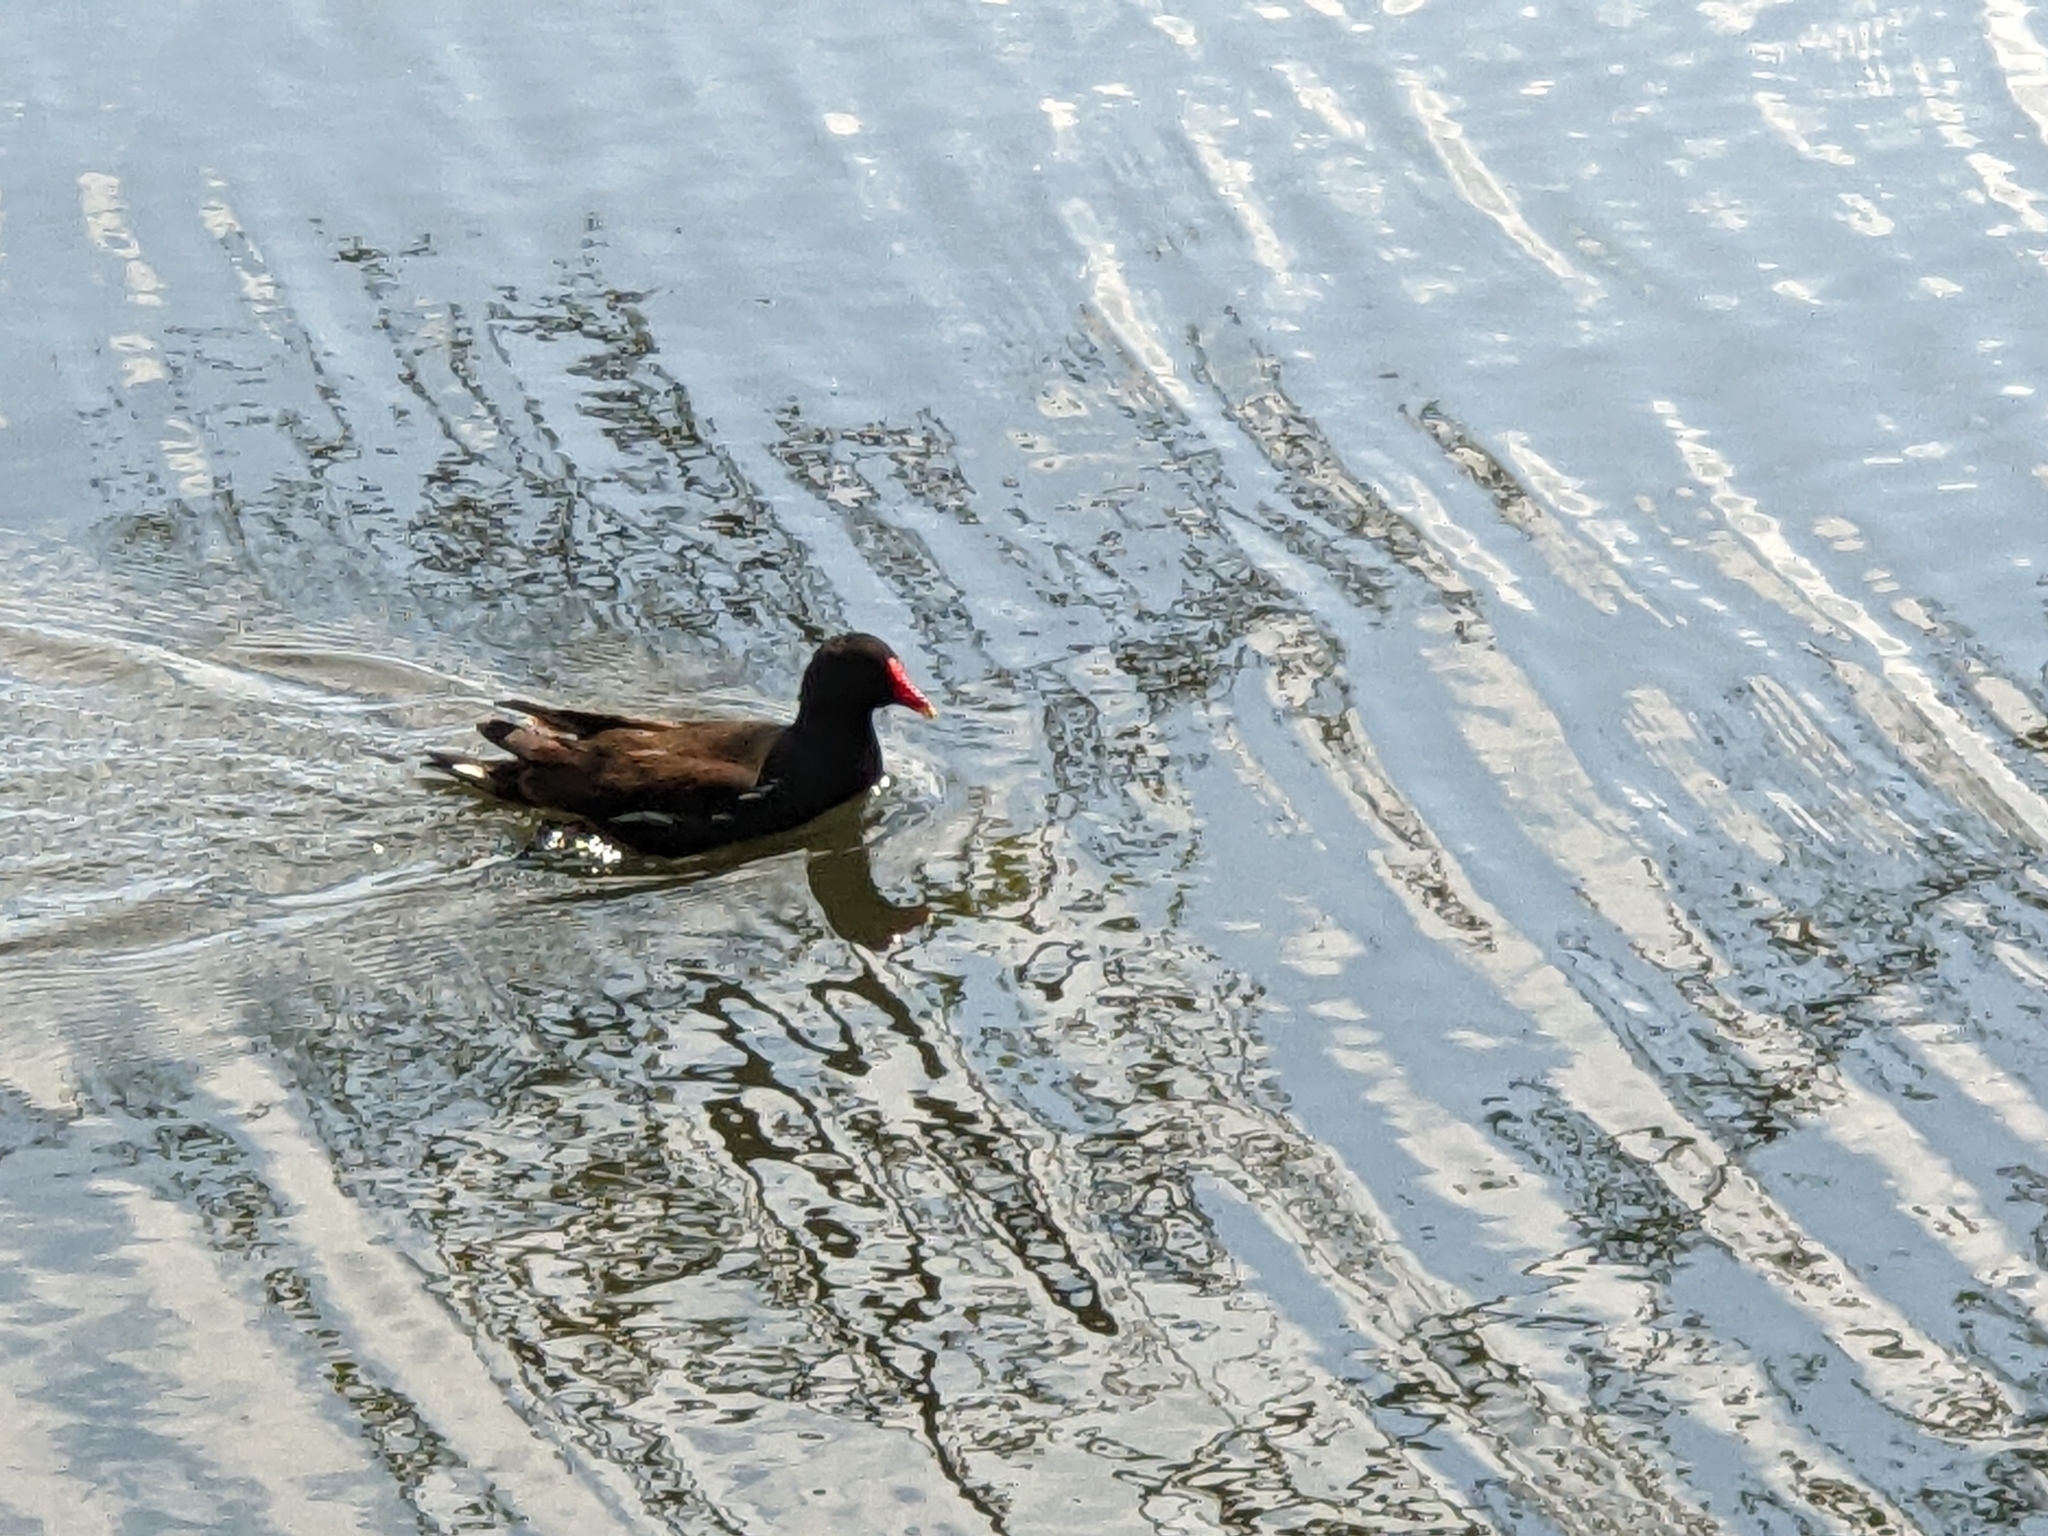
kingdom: Animalia
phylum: Chordata
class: Aves
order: Gruiformes
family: Rallidae
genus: Gallinula
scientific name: Gallinula chloropus
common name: Common moorhen
